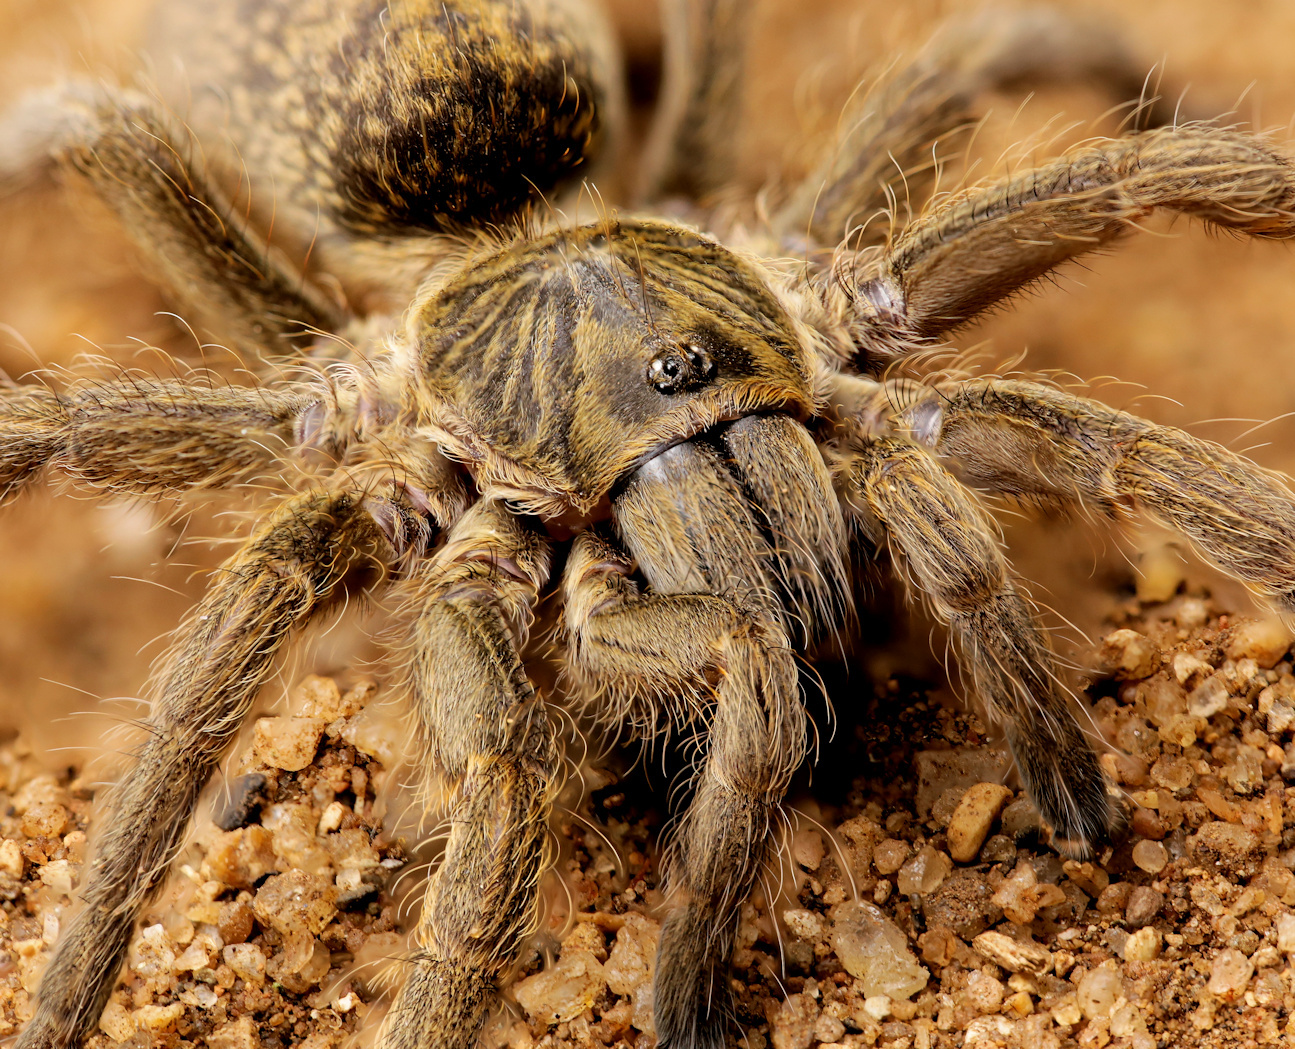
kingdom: Animalia
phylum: Arthropoda
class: Arachnida
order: Araneae
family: Theraphosidae
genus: Harpactirella
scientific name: Harpactirella overdijki
